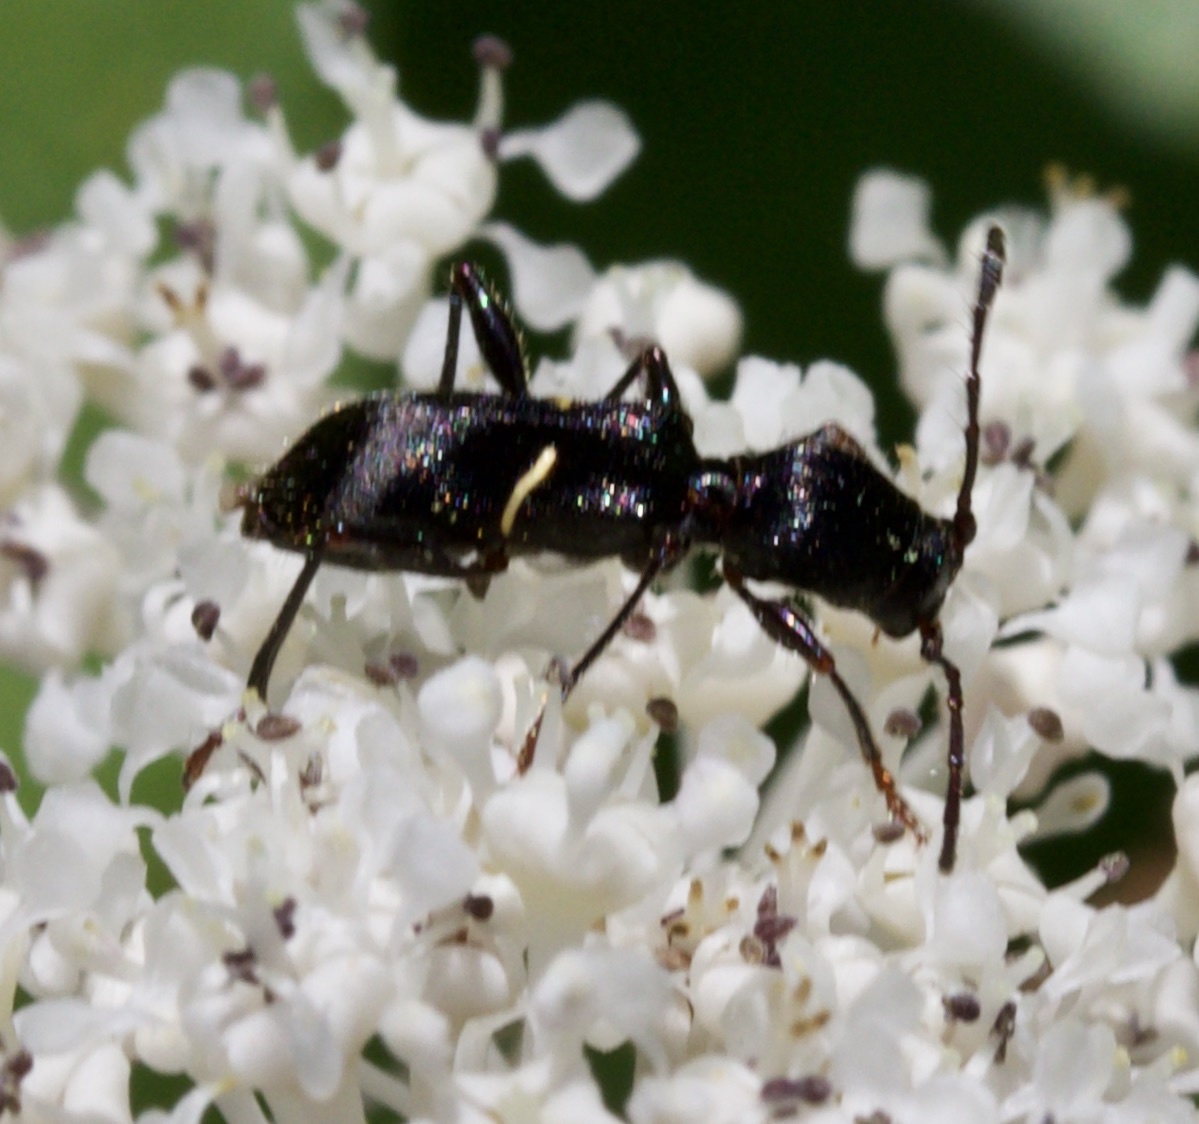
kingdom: Animalia
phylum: Arthropoda
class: Insecta
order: Coleoptera
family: Cerambycidae
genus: Euderces
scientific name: Euderces picipes
